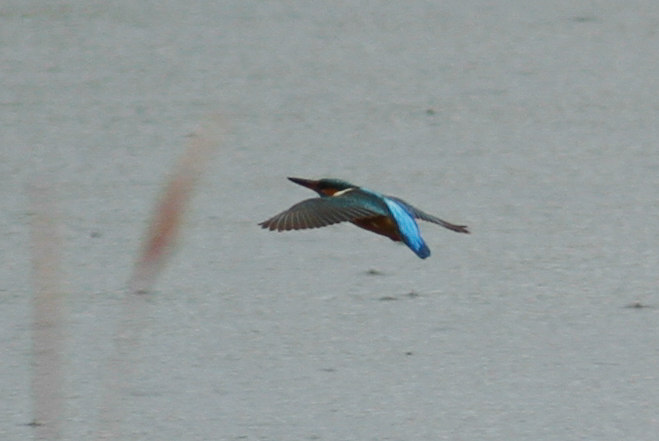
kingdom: Animalia
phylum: Chordata
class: Aves
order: Coraciiformes
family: Alcedinidae
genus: Alcedo
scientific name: Alcedo atthis
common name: Common kingfisher
